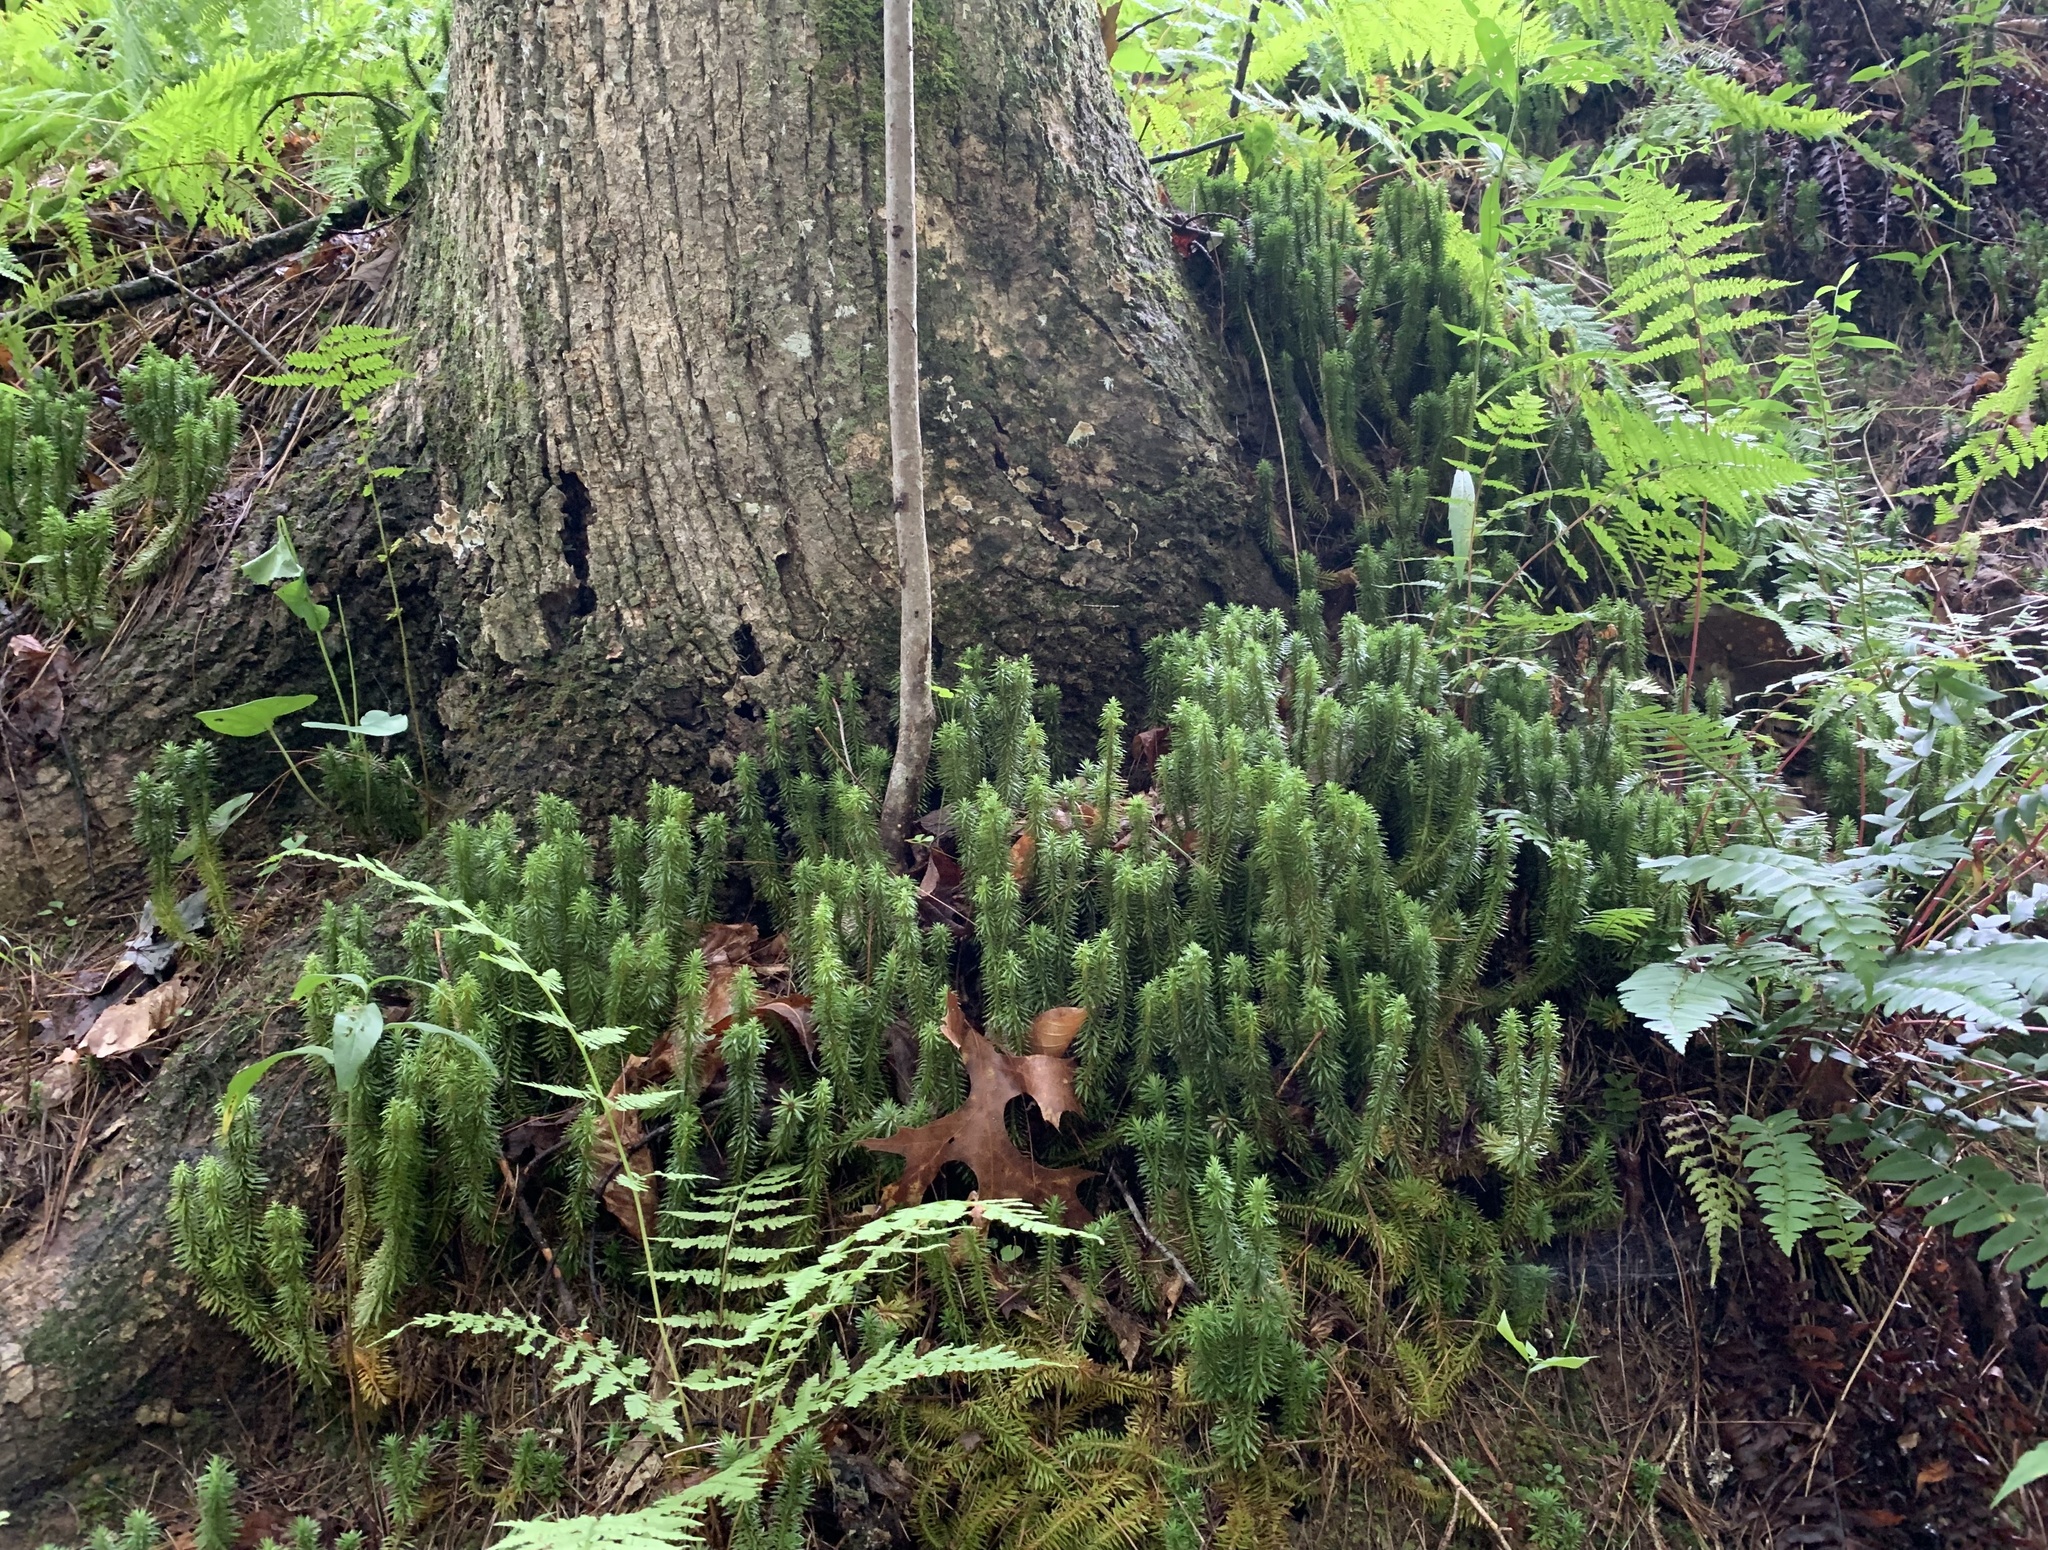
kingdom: Plantae
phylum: Tracheophyta
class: Lycopodiopsida
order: Lycopodiales
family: Lycopodiaceae
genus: Huperzia
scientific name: Huperzia lucidula
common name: Shining clubmoss
